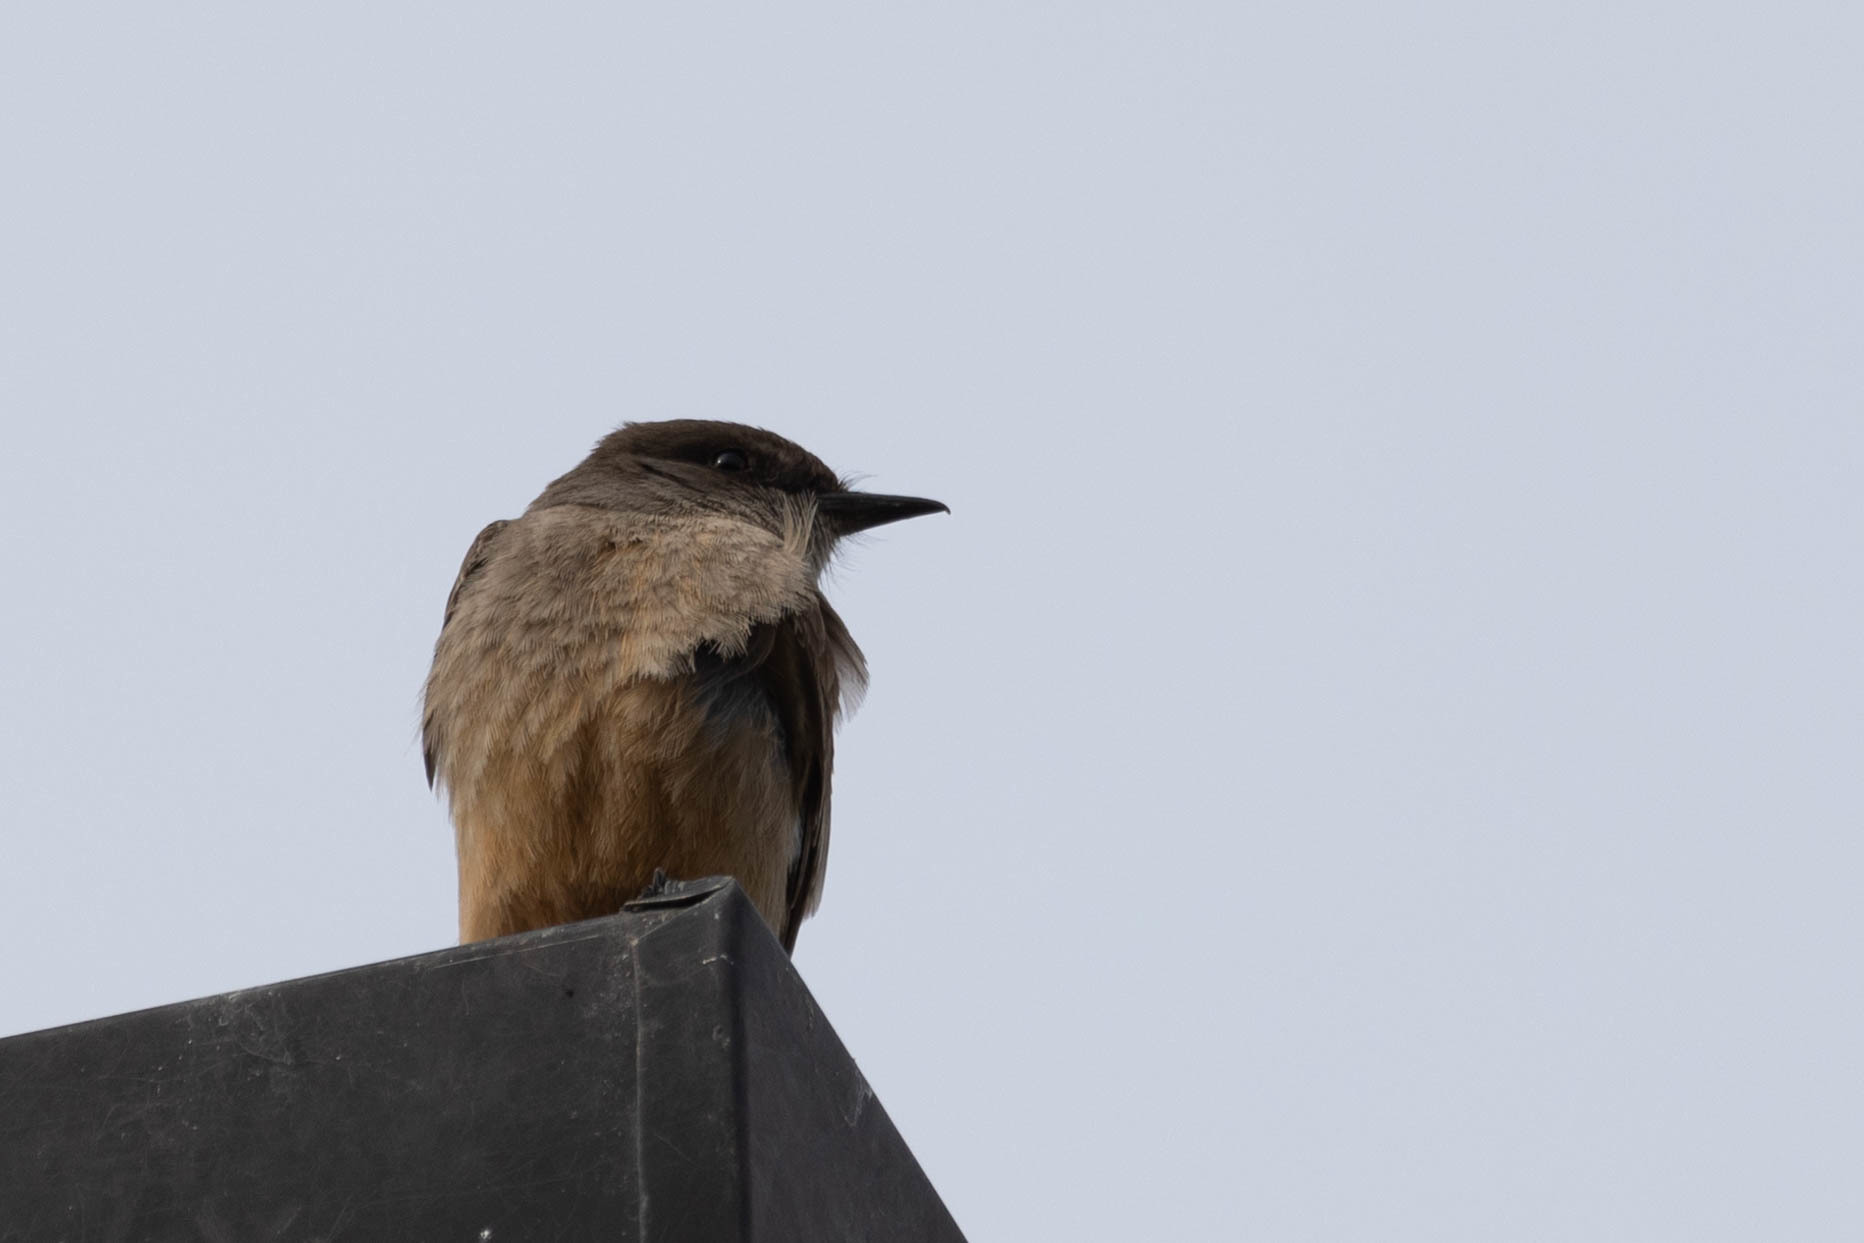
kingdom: Animalia
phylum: Chordata
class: Aves
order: Passeriformes
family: Tyrannidae
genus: Sayornis
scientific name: Sayornis saya
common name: Say's phoebe
